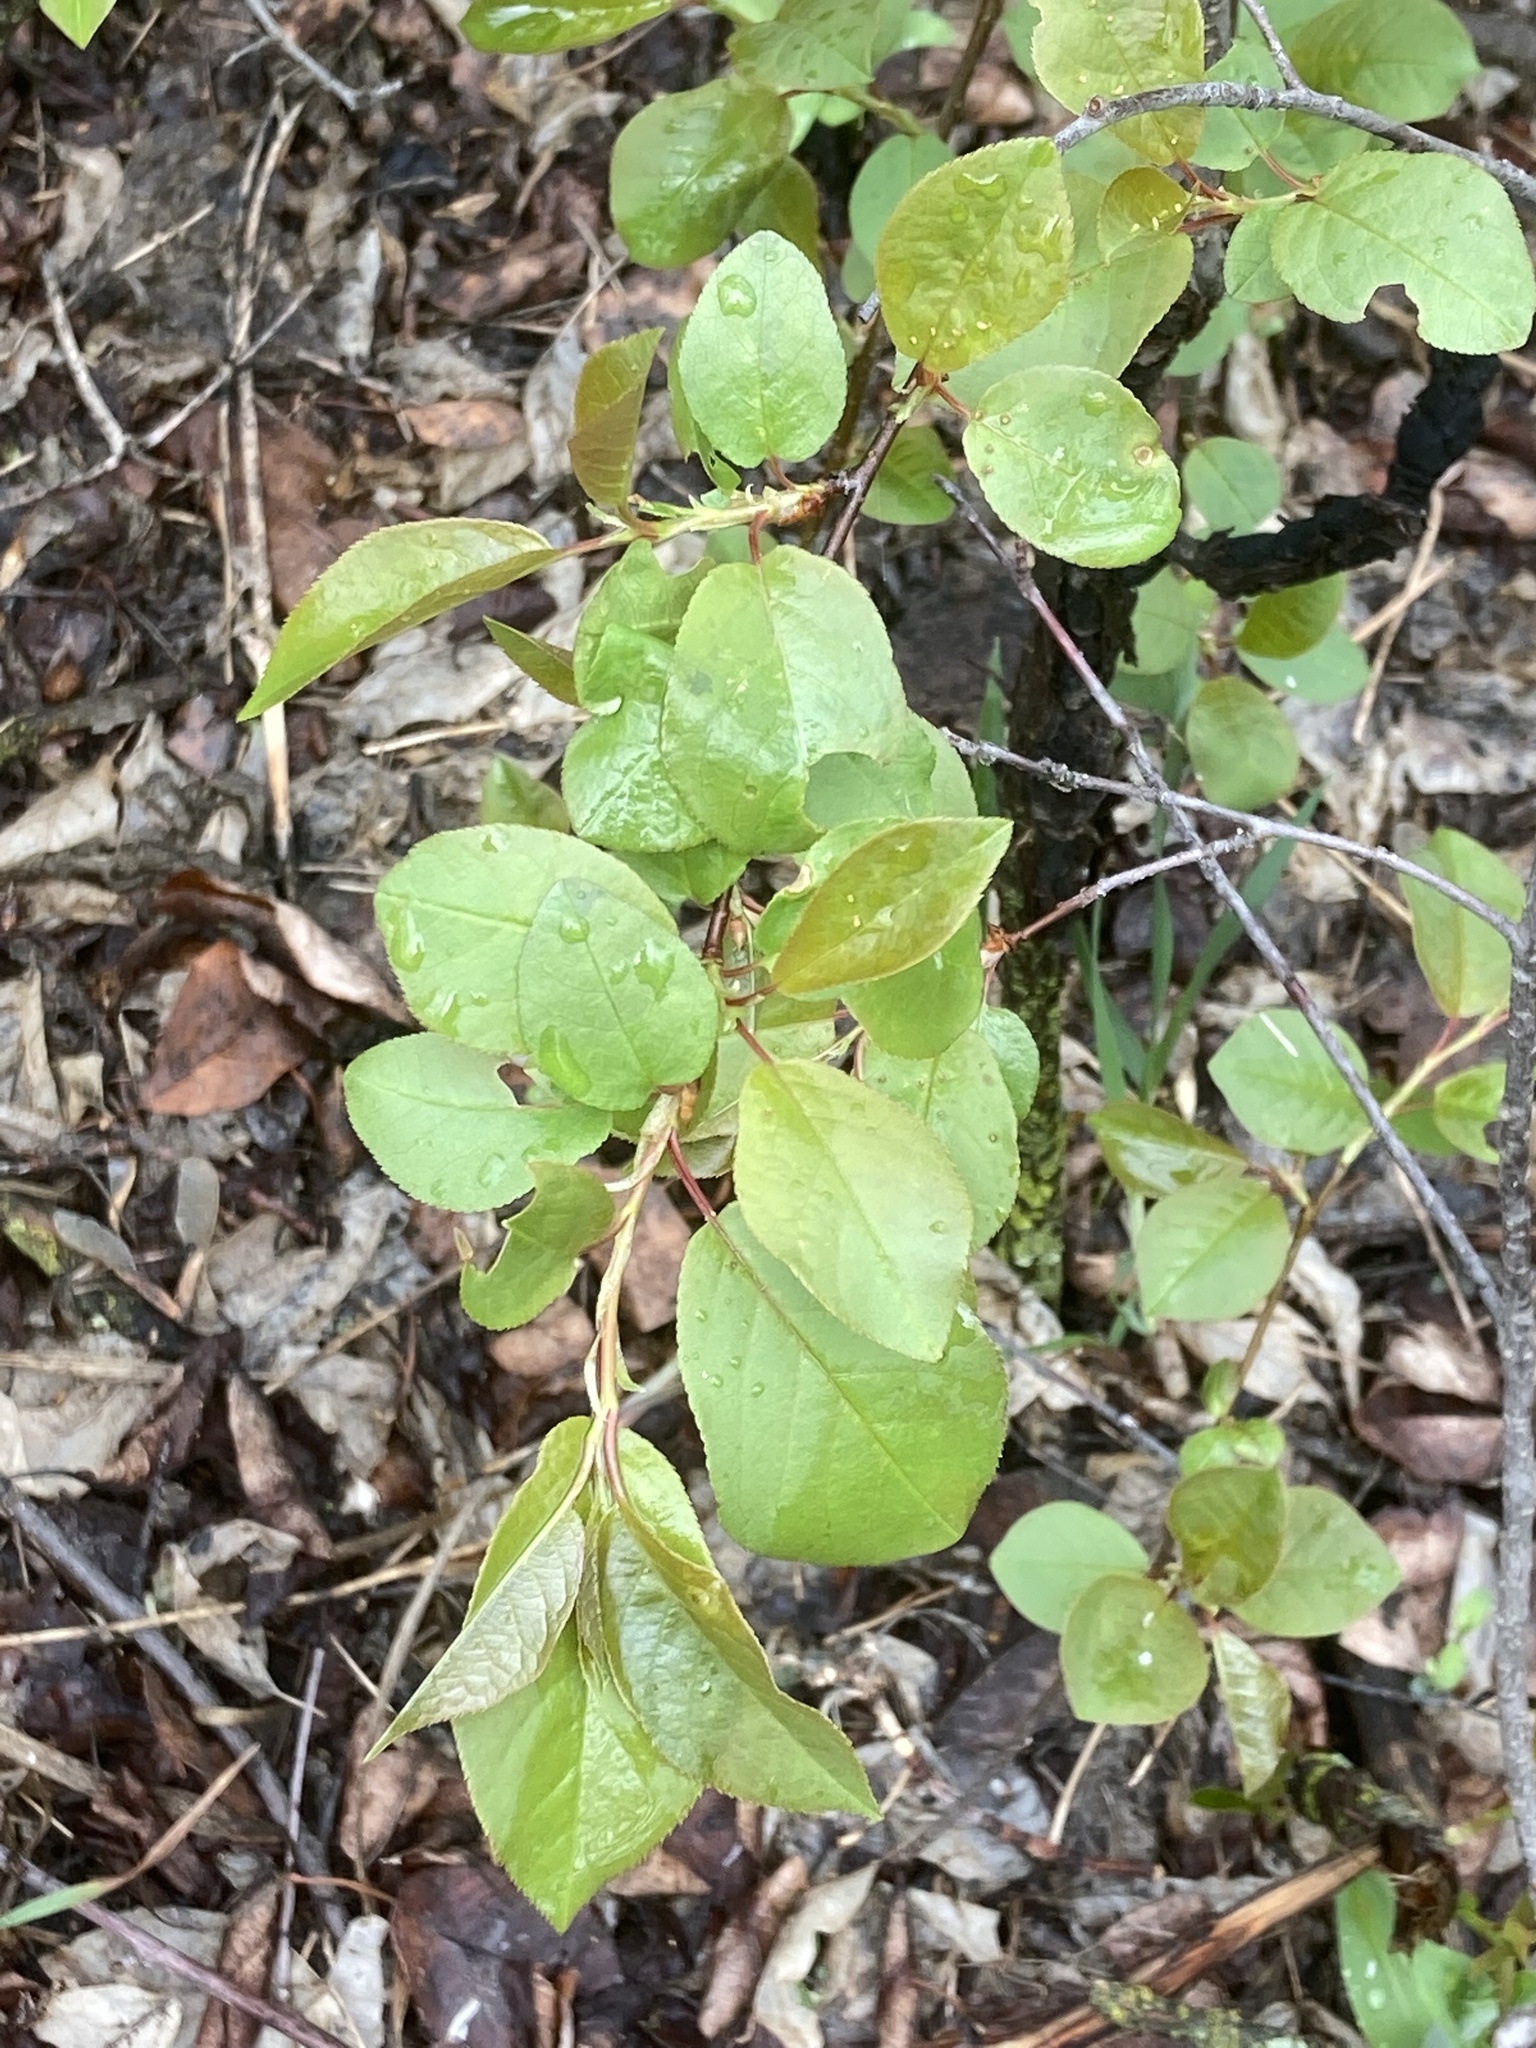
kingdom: Plantae
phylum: Tracheophyta
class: Magnoliopsida
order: Rosales
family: Rosaceae
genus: Prunus
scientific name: Prunus virginiana
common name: Chokecherry
